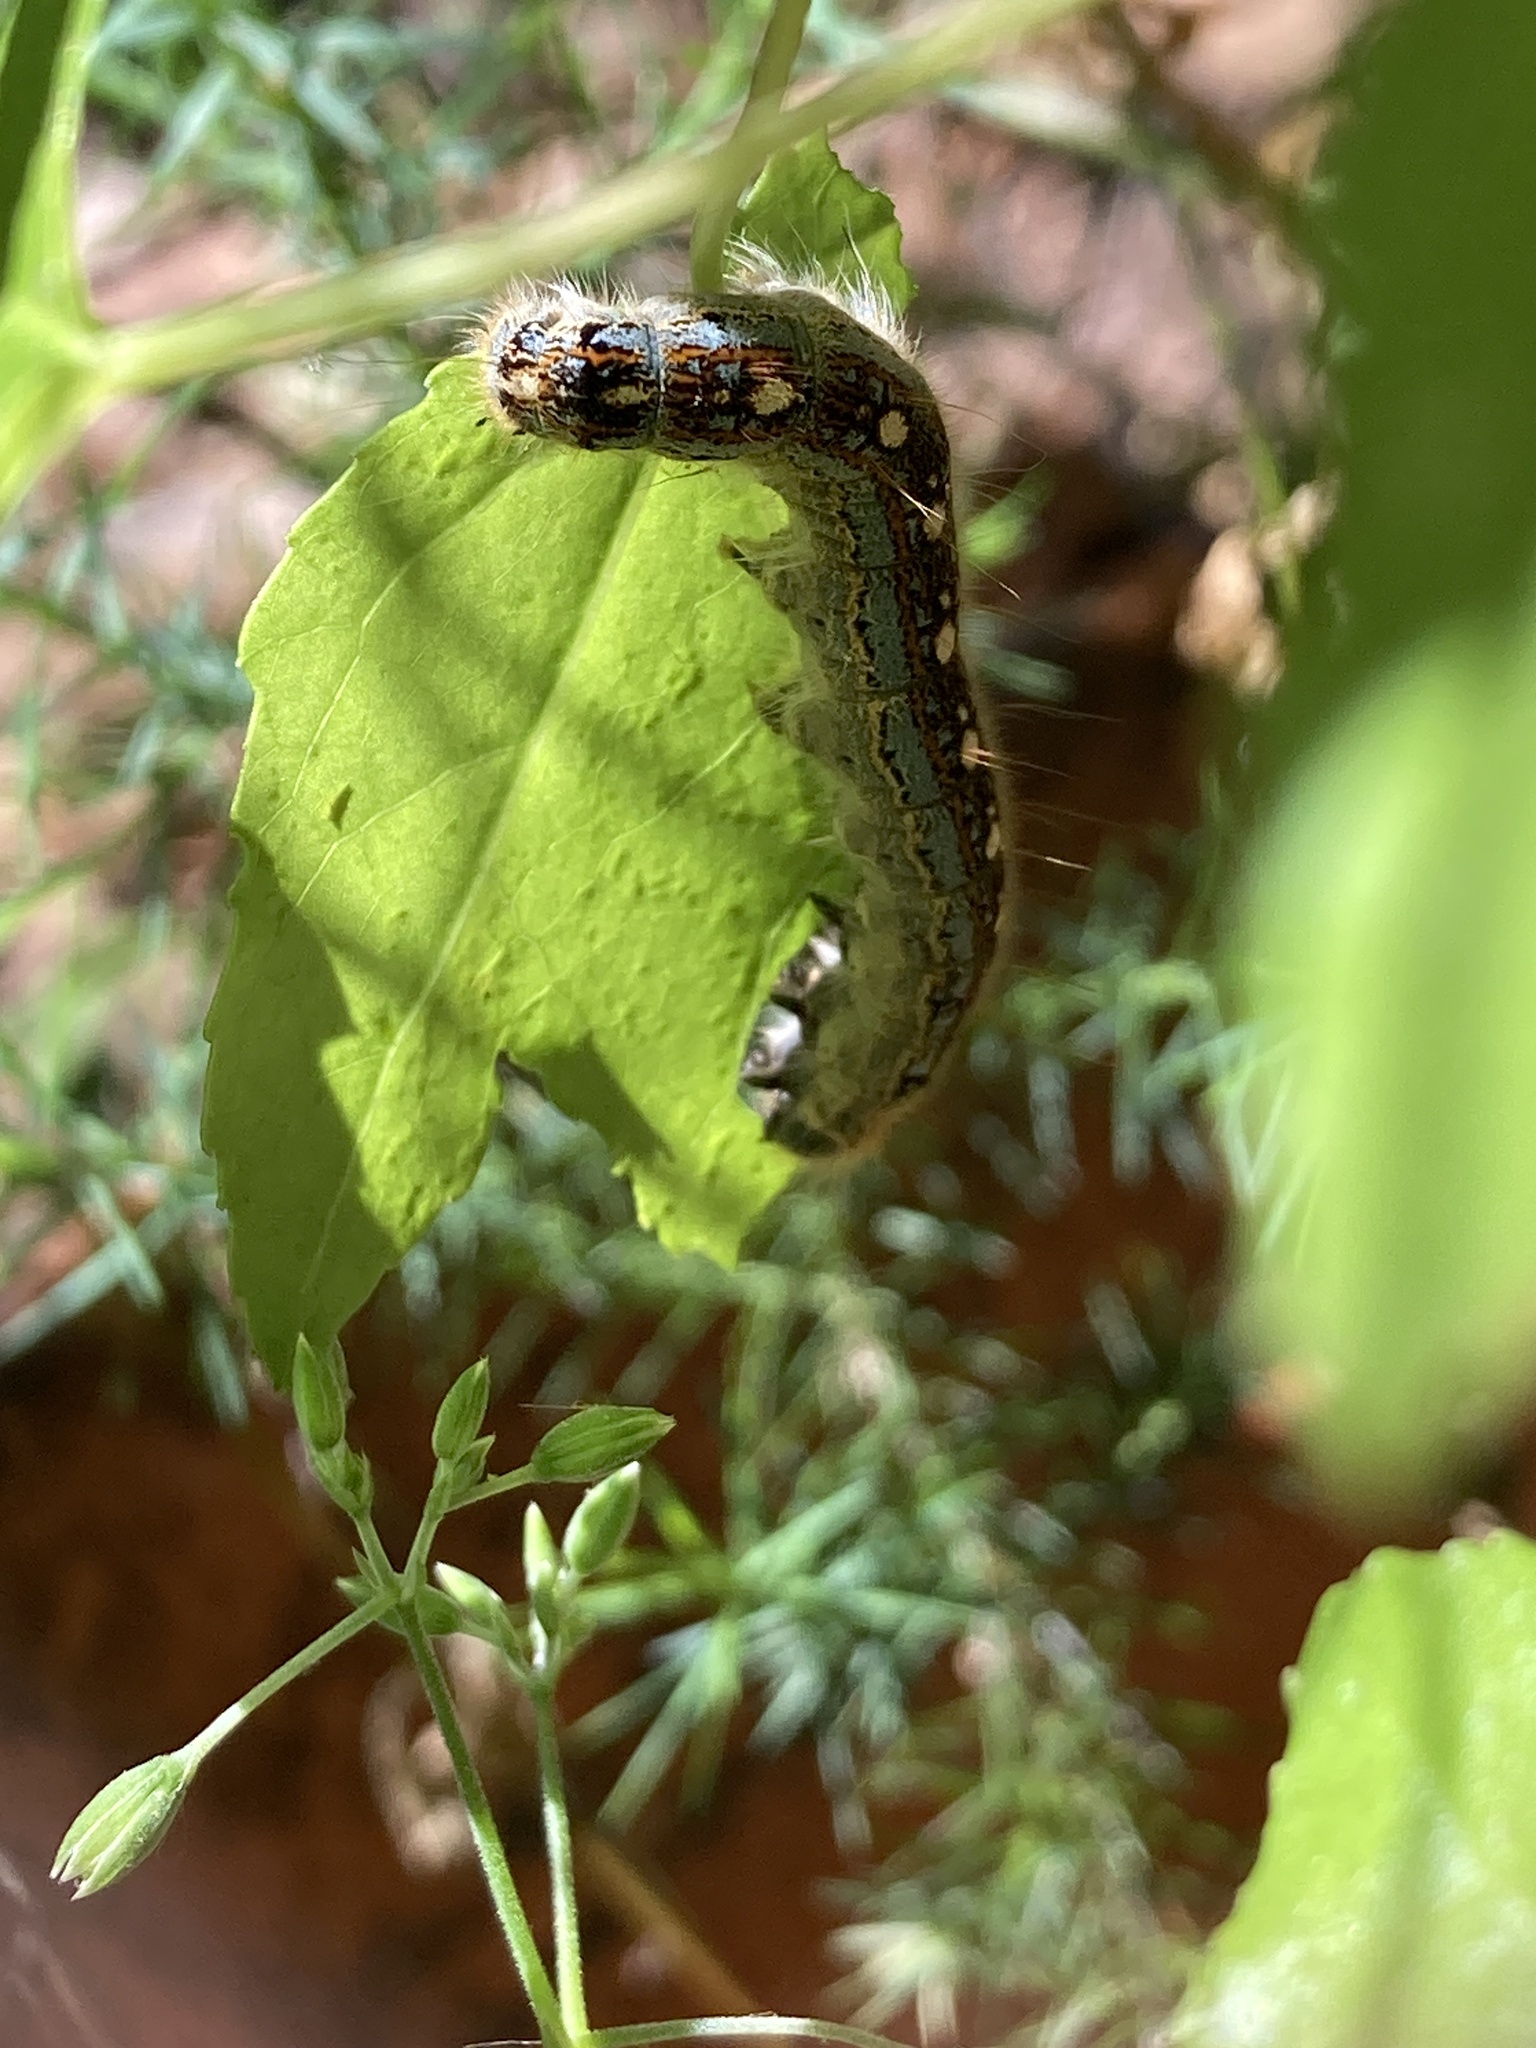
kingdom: Animalia
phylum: Arthropoda
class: Insecta
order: Lepidoptera
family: Lasiocampidae
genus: Malacosoma
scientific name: Malacosoma disstria
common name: Forest tent caterpillar
